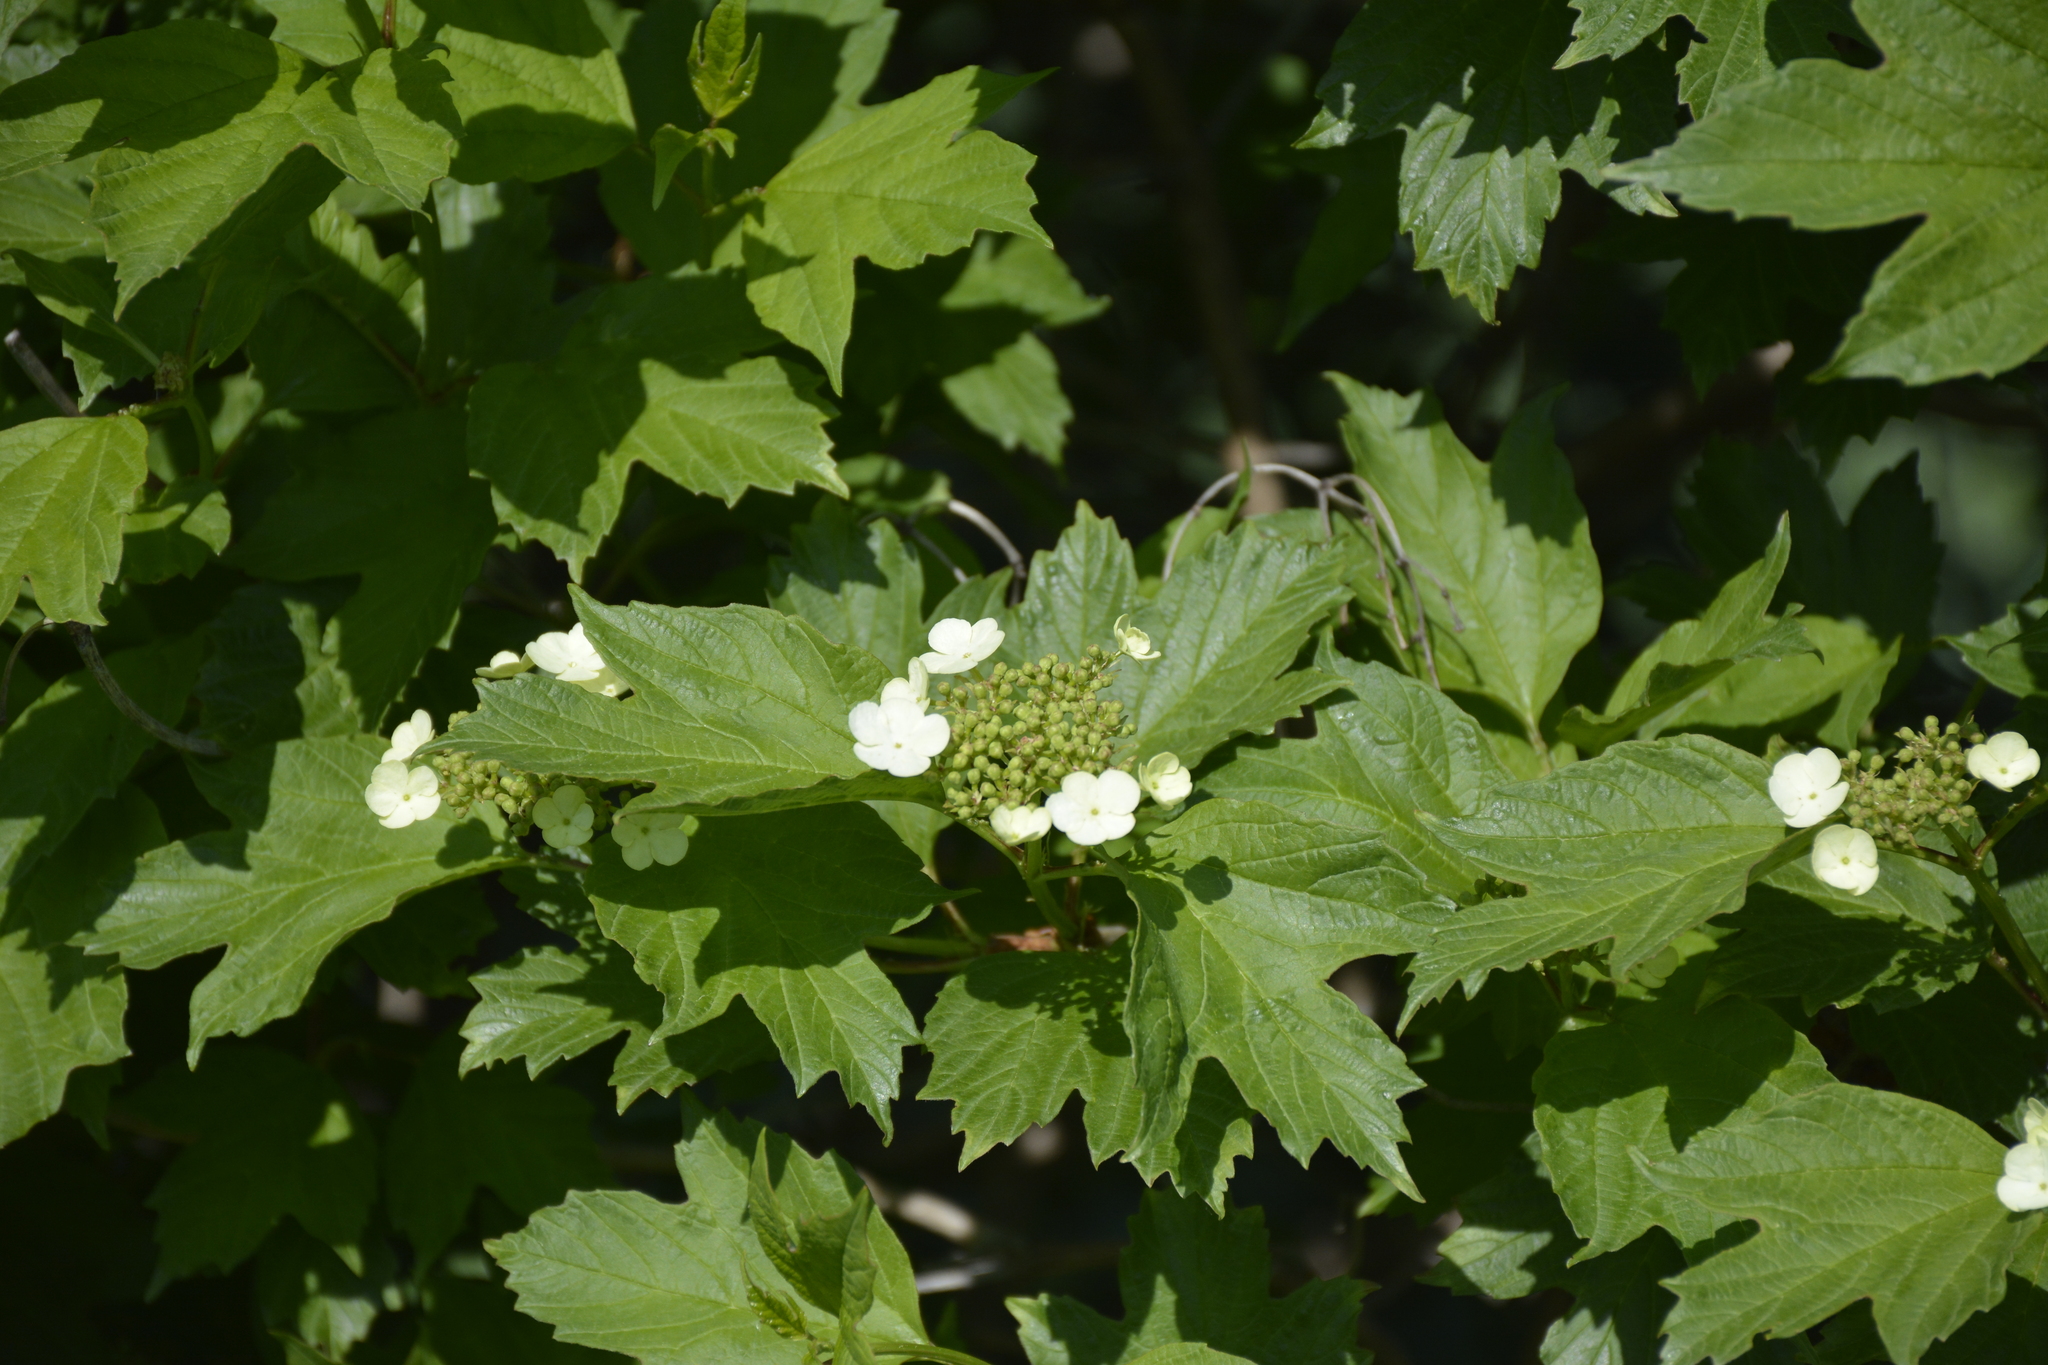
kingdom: Plantae
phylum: Tracheophyta
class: Magnoliopsida
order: Dipsacales
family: Viburnaceae
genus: Viburnum
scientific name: Viburnum opulus
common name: Guelder-rose
